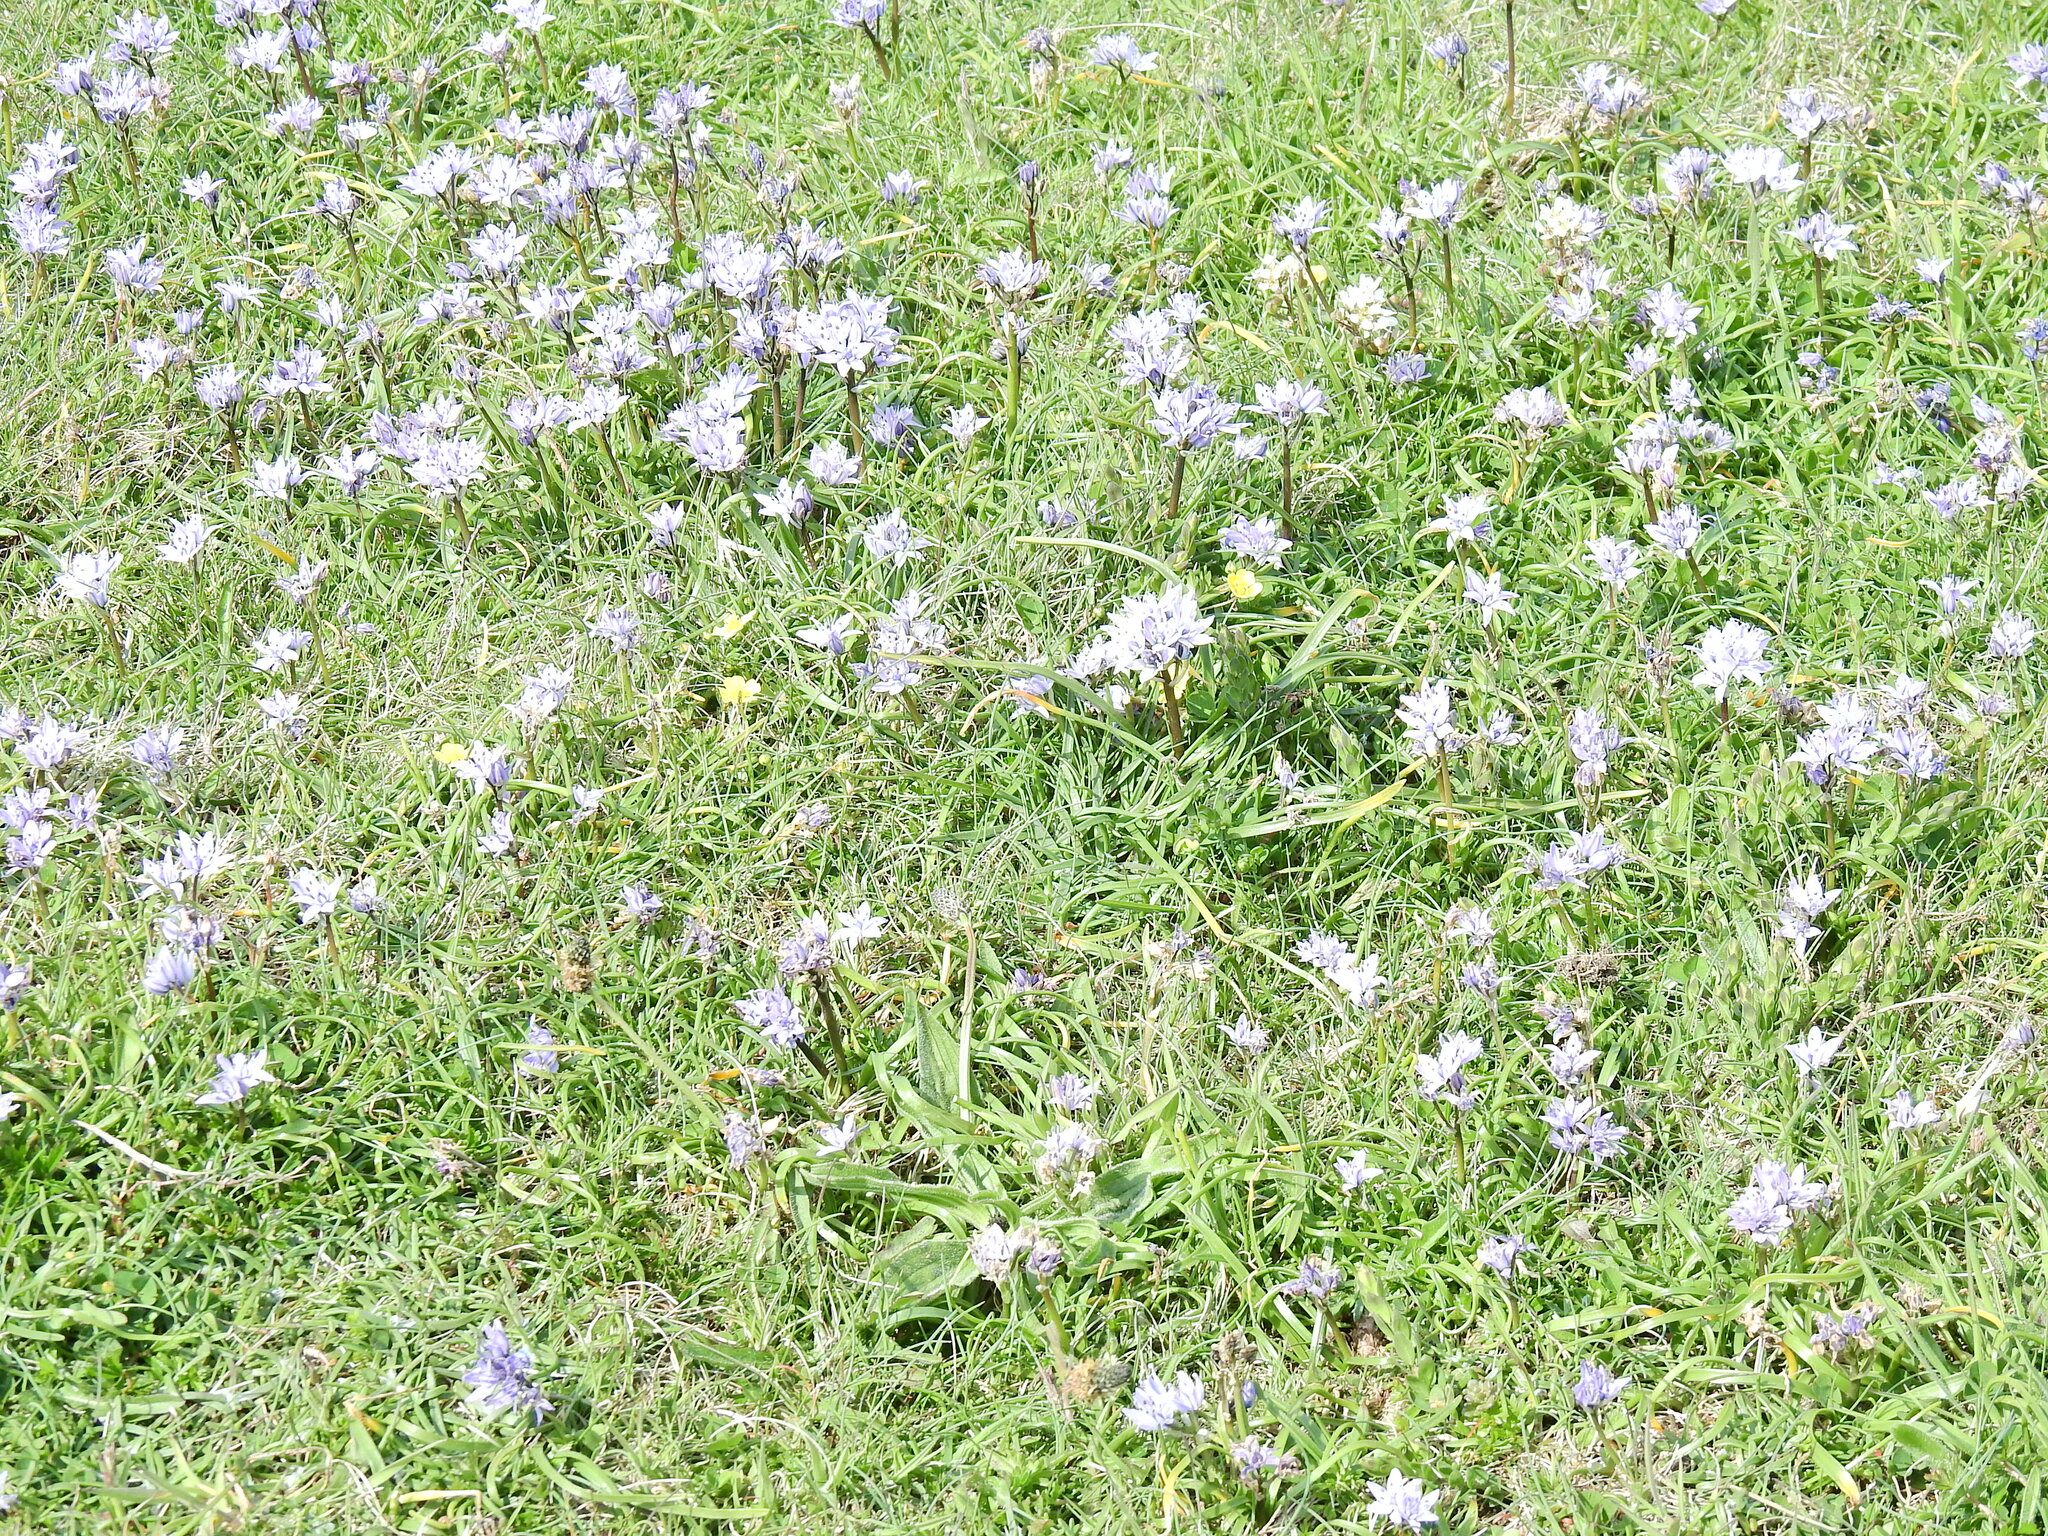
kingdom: Plantae
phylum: Tracheophyta
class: Liliopsida
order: Asparagales
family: Asparagaceae
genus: Scilla
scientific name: Scilla verna
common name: Spring squill
